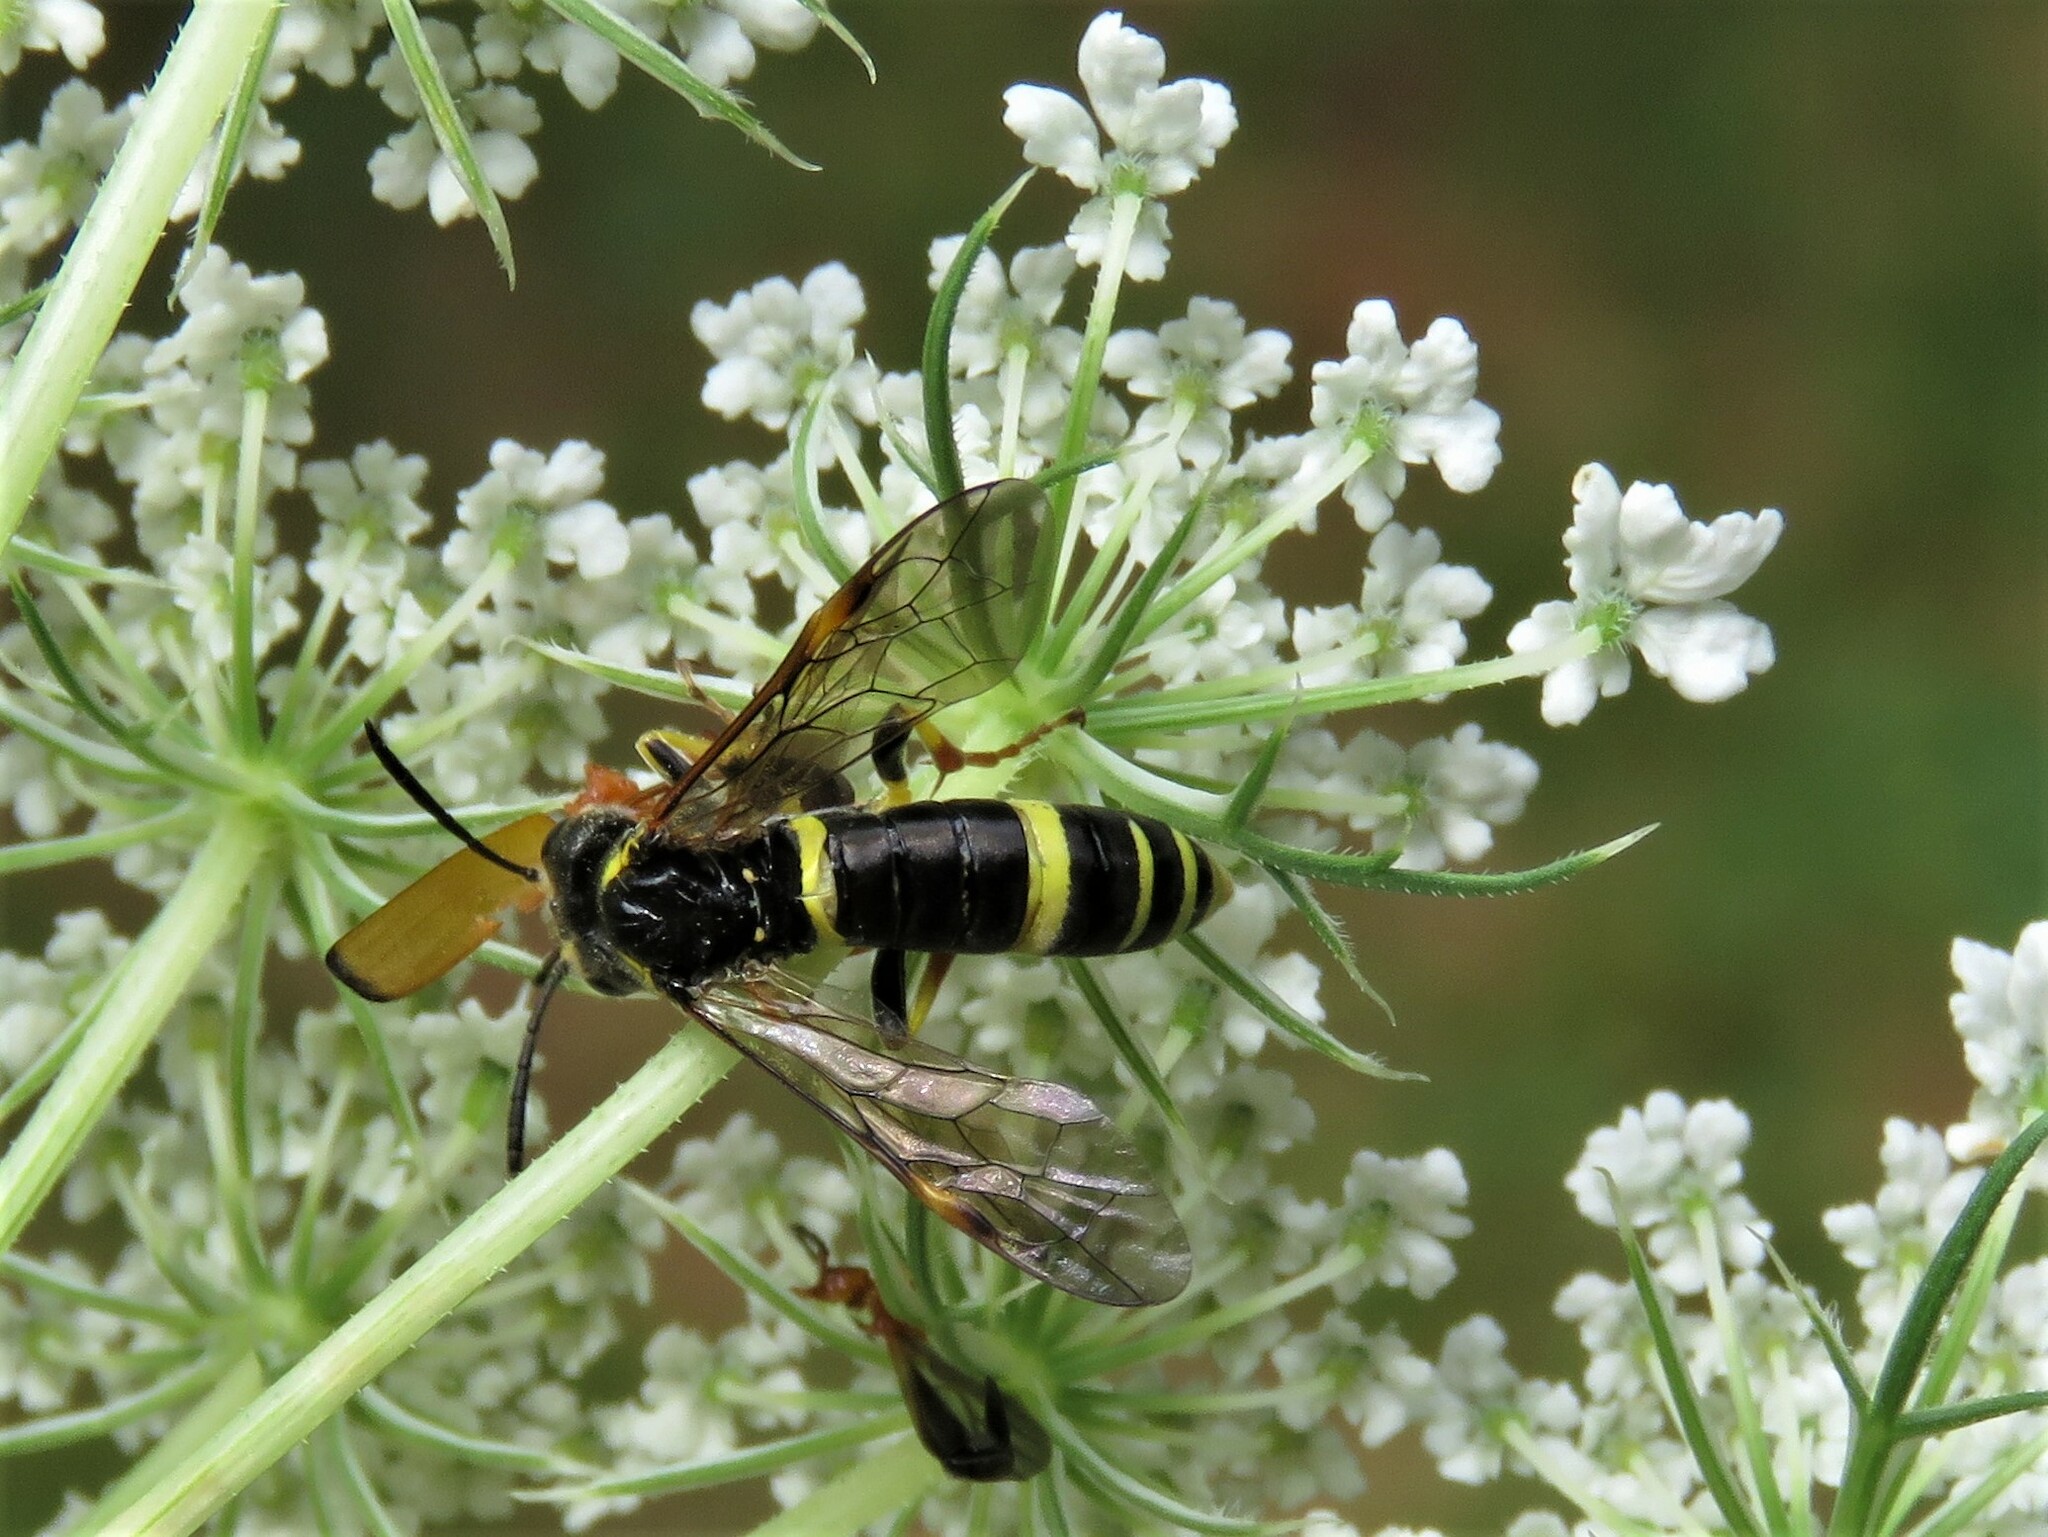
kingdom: Animalia
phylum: Arthropoda
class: Insecta
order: Hymenoptera
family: Tenthredinidae
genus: Tenthredo
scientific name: Tenthredo amoena
